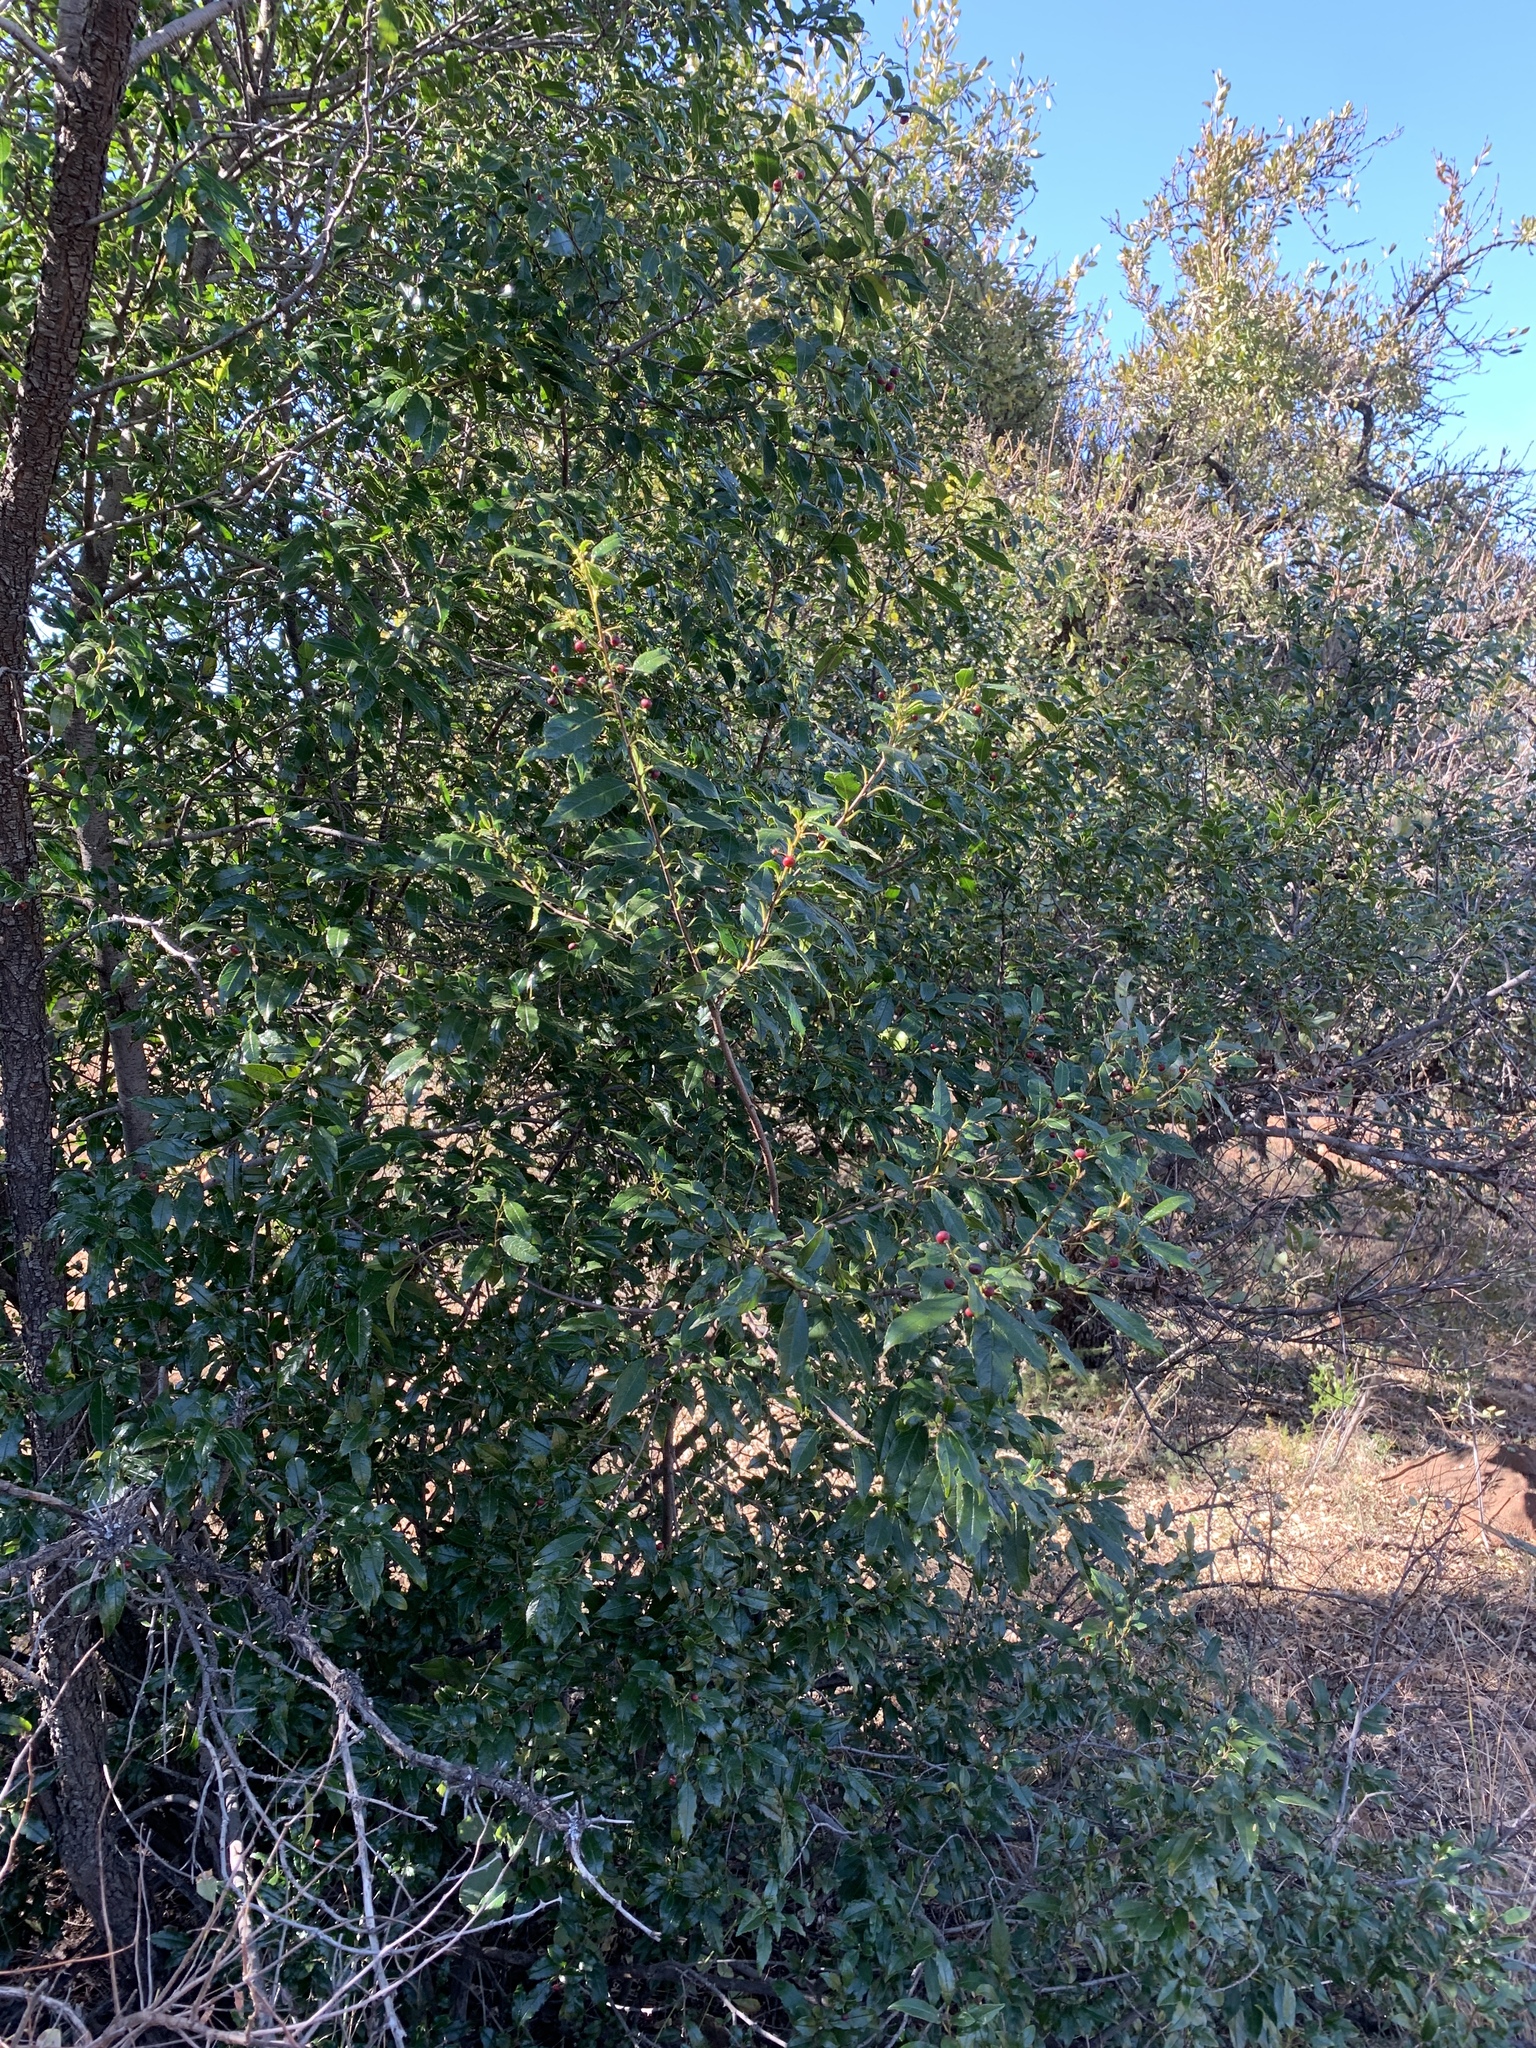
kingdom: Plantae
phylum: Tracheophyta
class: Magnoliopsida
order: Rosales
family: Rhamnaceae
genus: Rhamnus
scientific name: Rhamnus prinoides
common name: Dogwood
